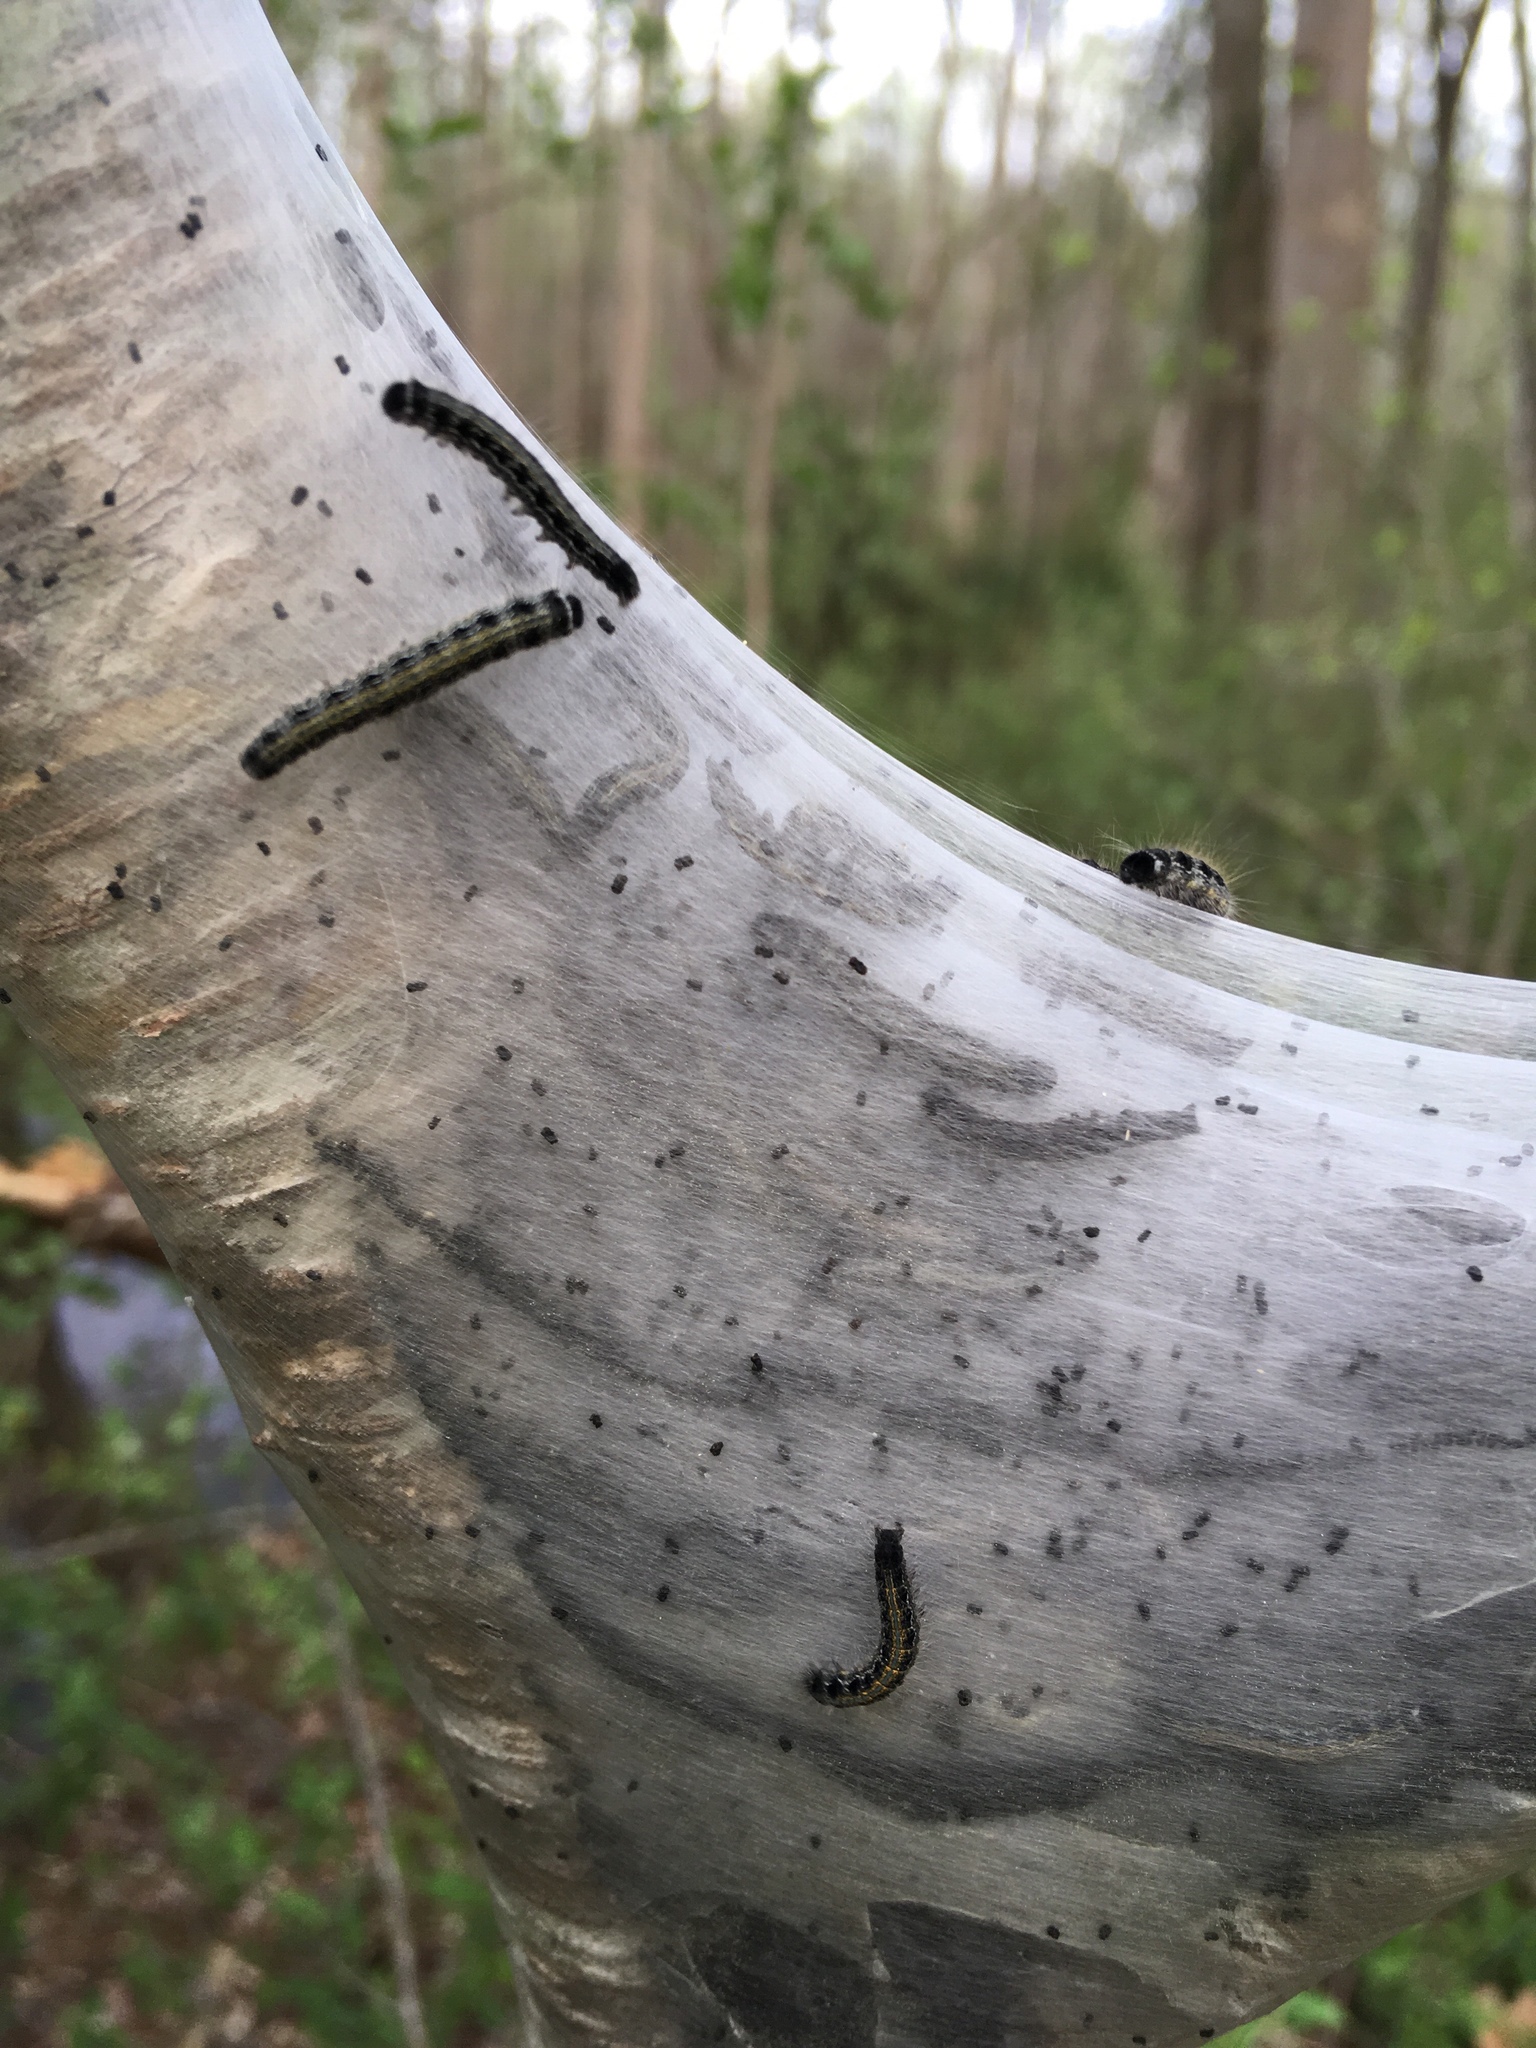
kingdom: Animalia
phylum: Arthropoda
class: Insecta
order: Lepidoptera
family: Lasiocampidae
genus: Malacosoma
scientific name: Malacosoma americana
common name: Eastern tent caterpillar moth
